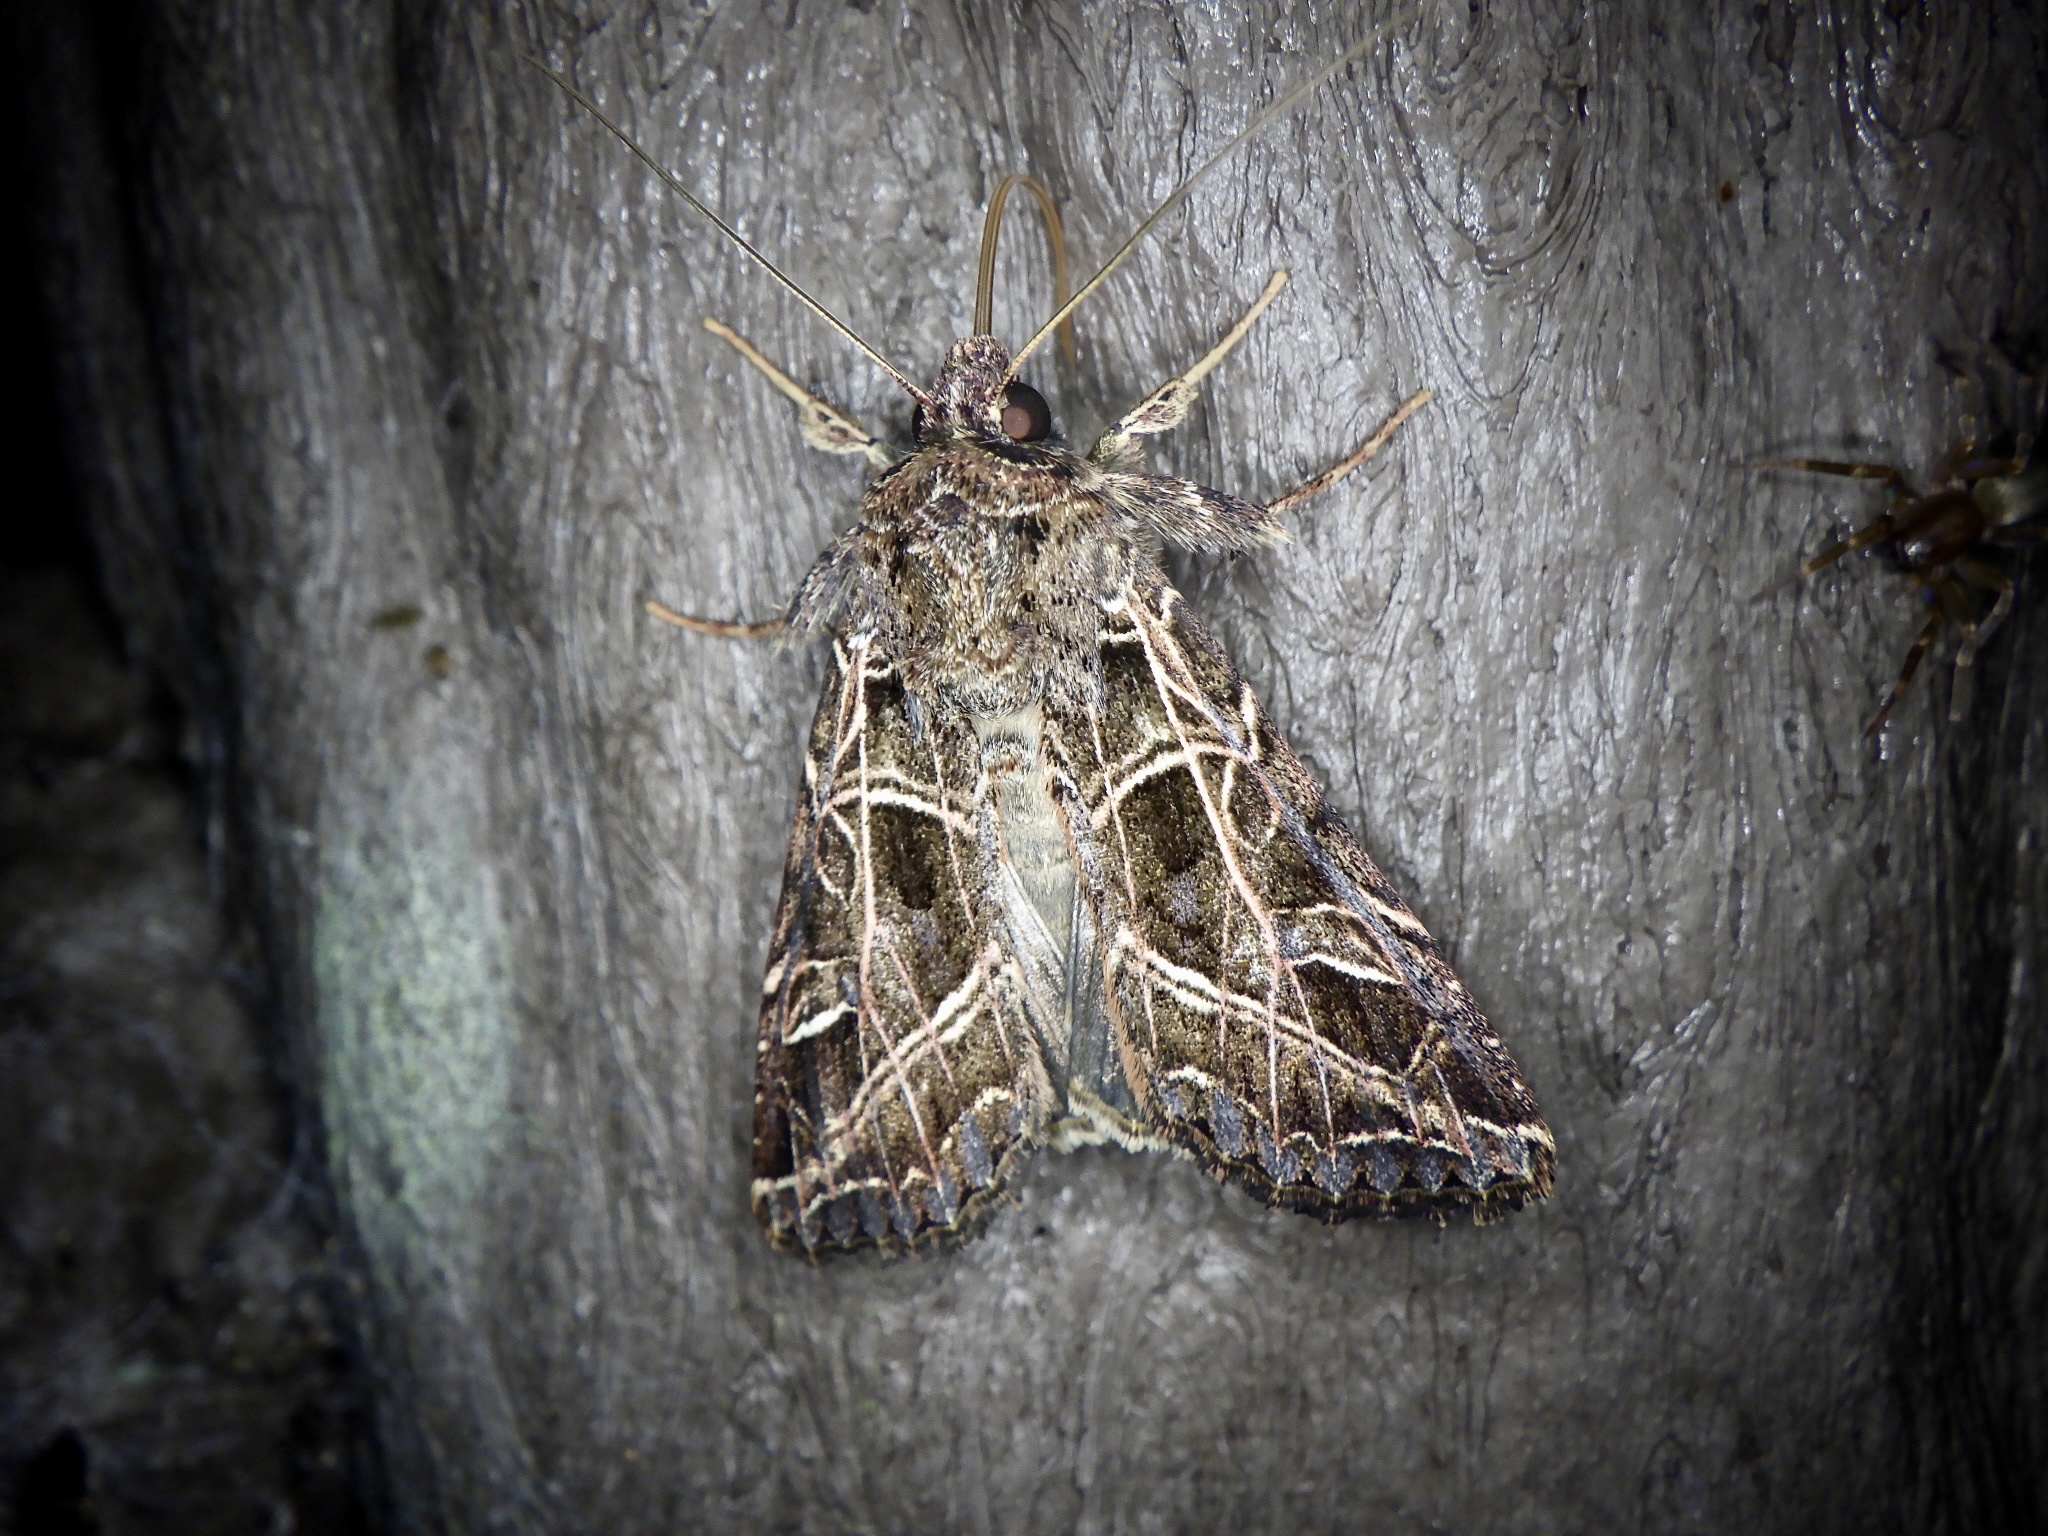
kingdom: Animalia
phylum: Arthropoda
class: Insecta
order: Lepidoptera
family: Noctuidae
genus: Dictyestra
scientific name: Dictyestra dissectus
